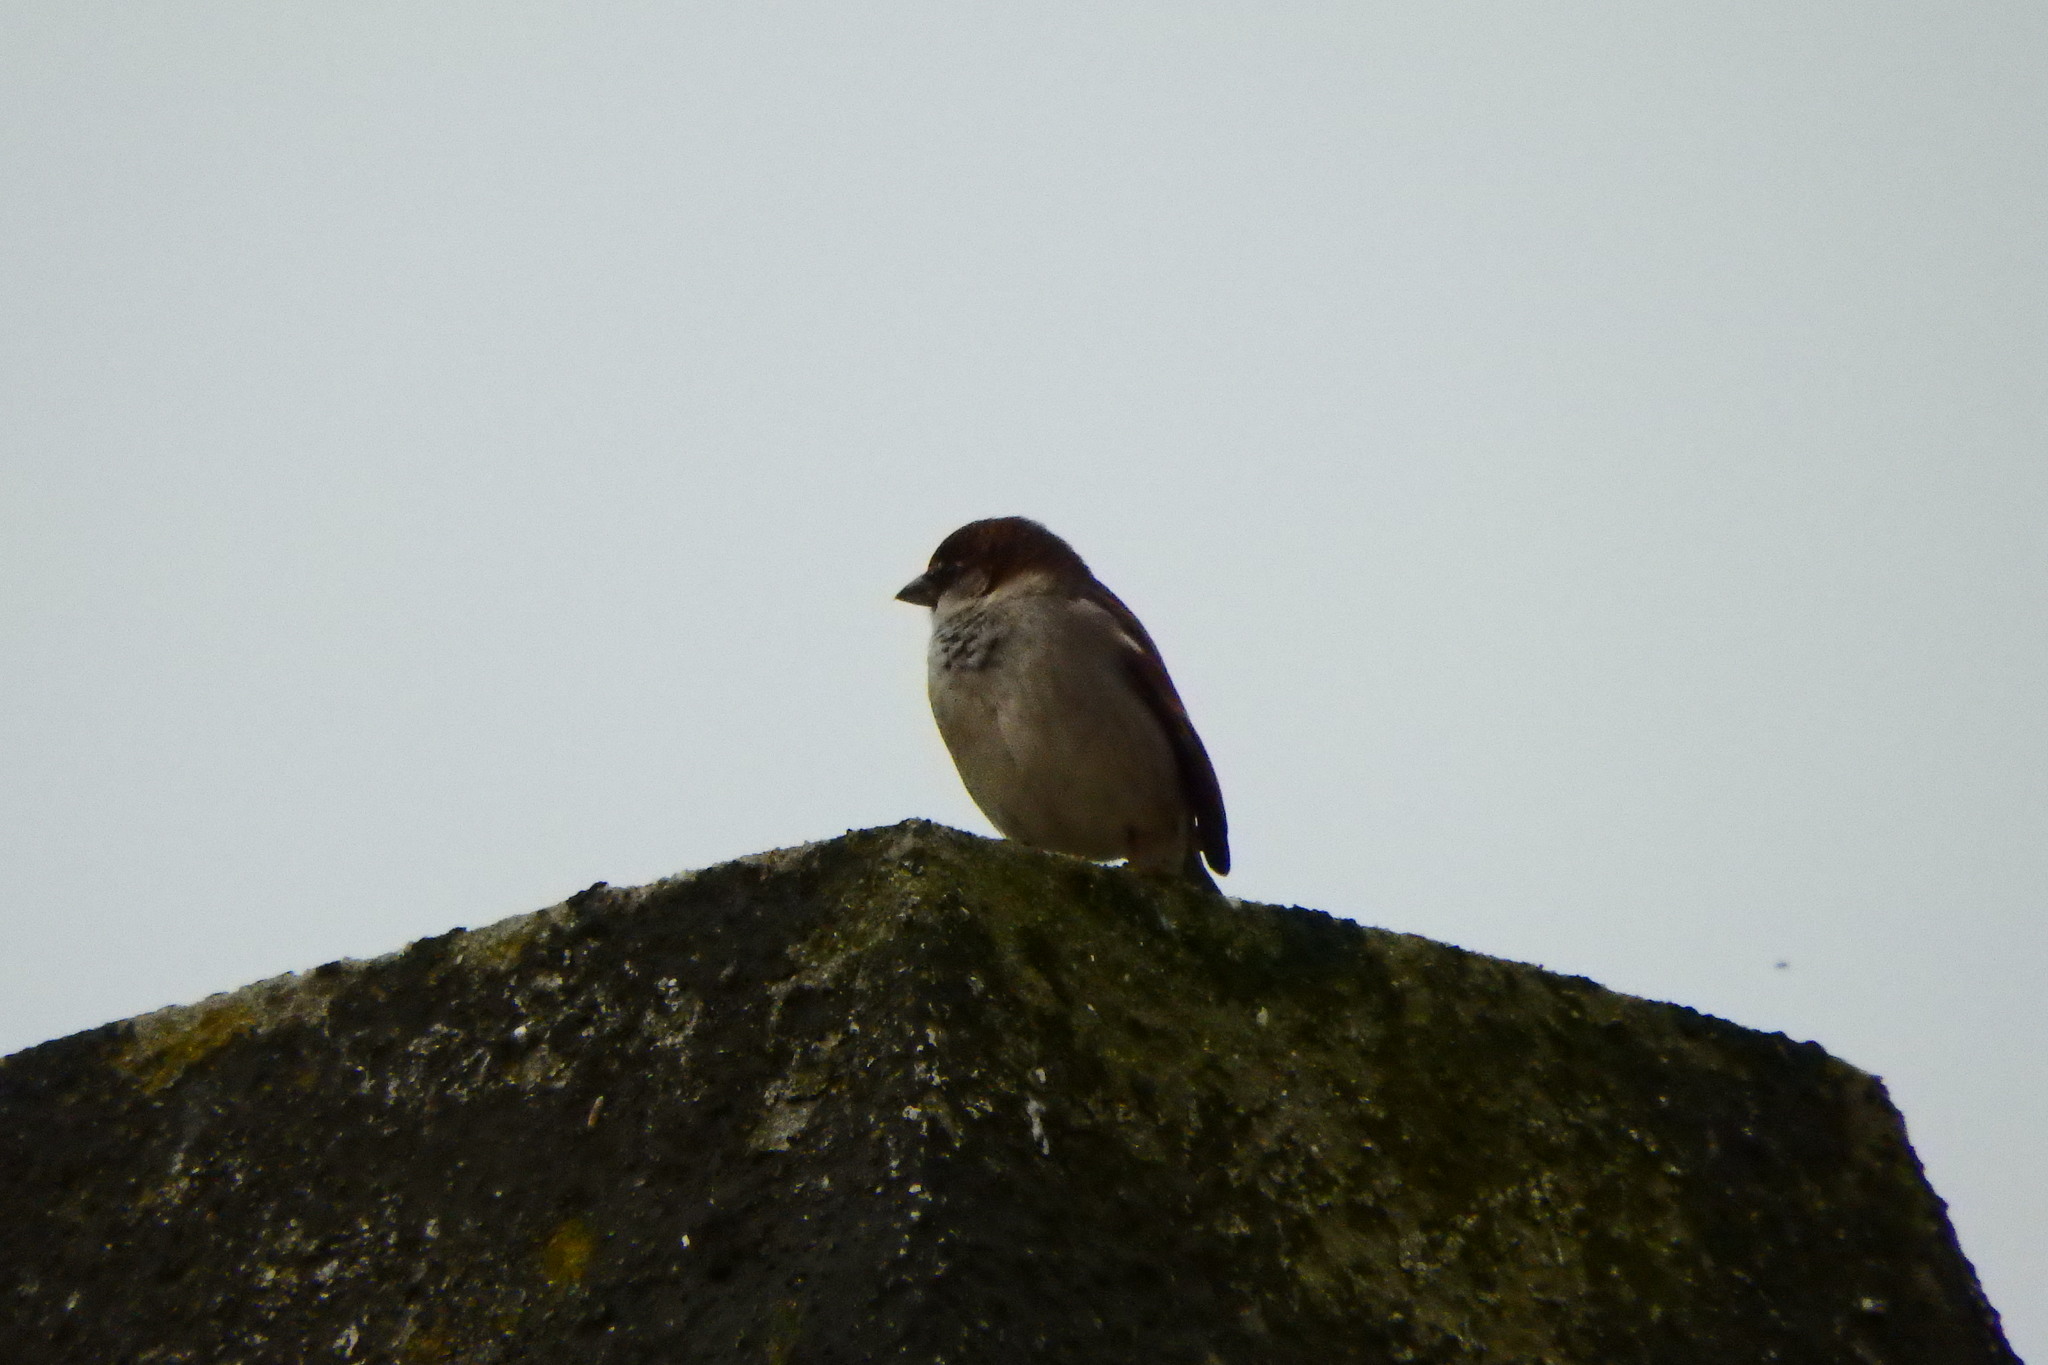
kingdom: Animalia
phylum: Chordata
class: Aves
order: Passeriformes
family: Passeridae
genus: Passer
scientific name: Passer domesticus
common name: House sparrow
